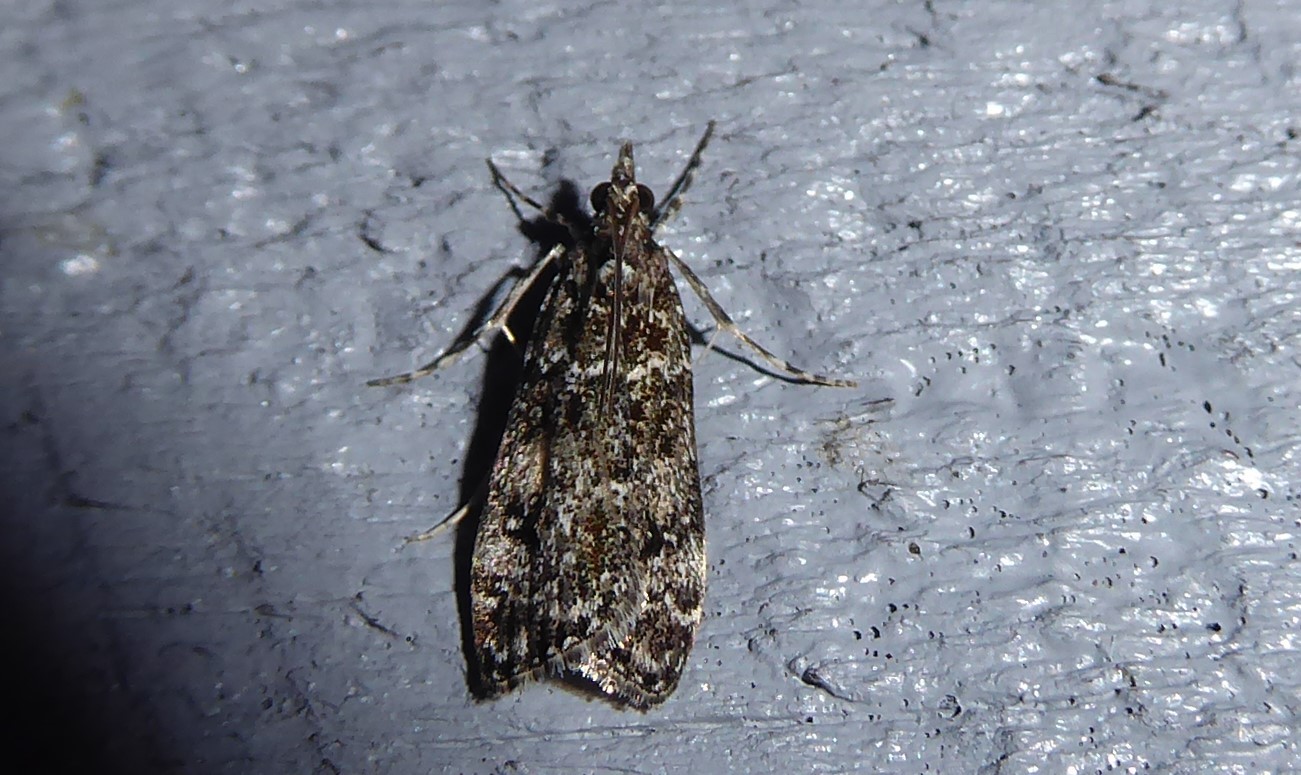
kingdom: Animalia
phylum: Arthropoda
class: Insecta
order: Lepidoptera
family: Crambidae
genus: Eudonia
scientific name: Eudonia philerga
